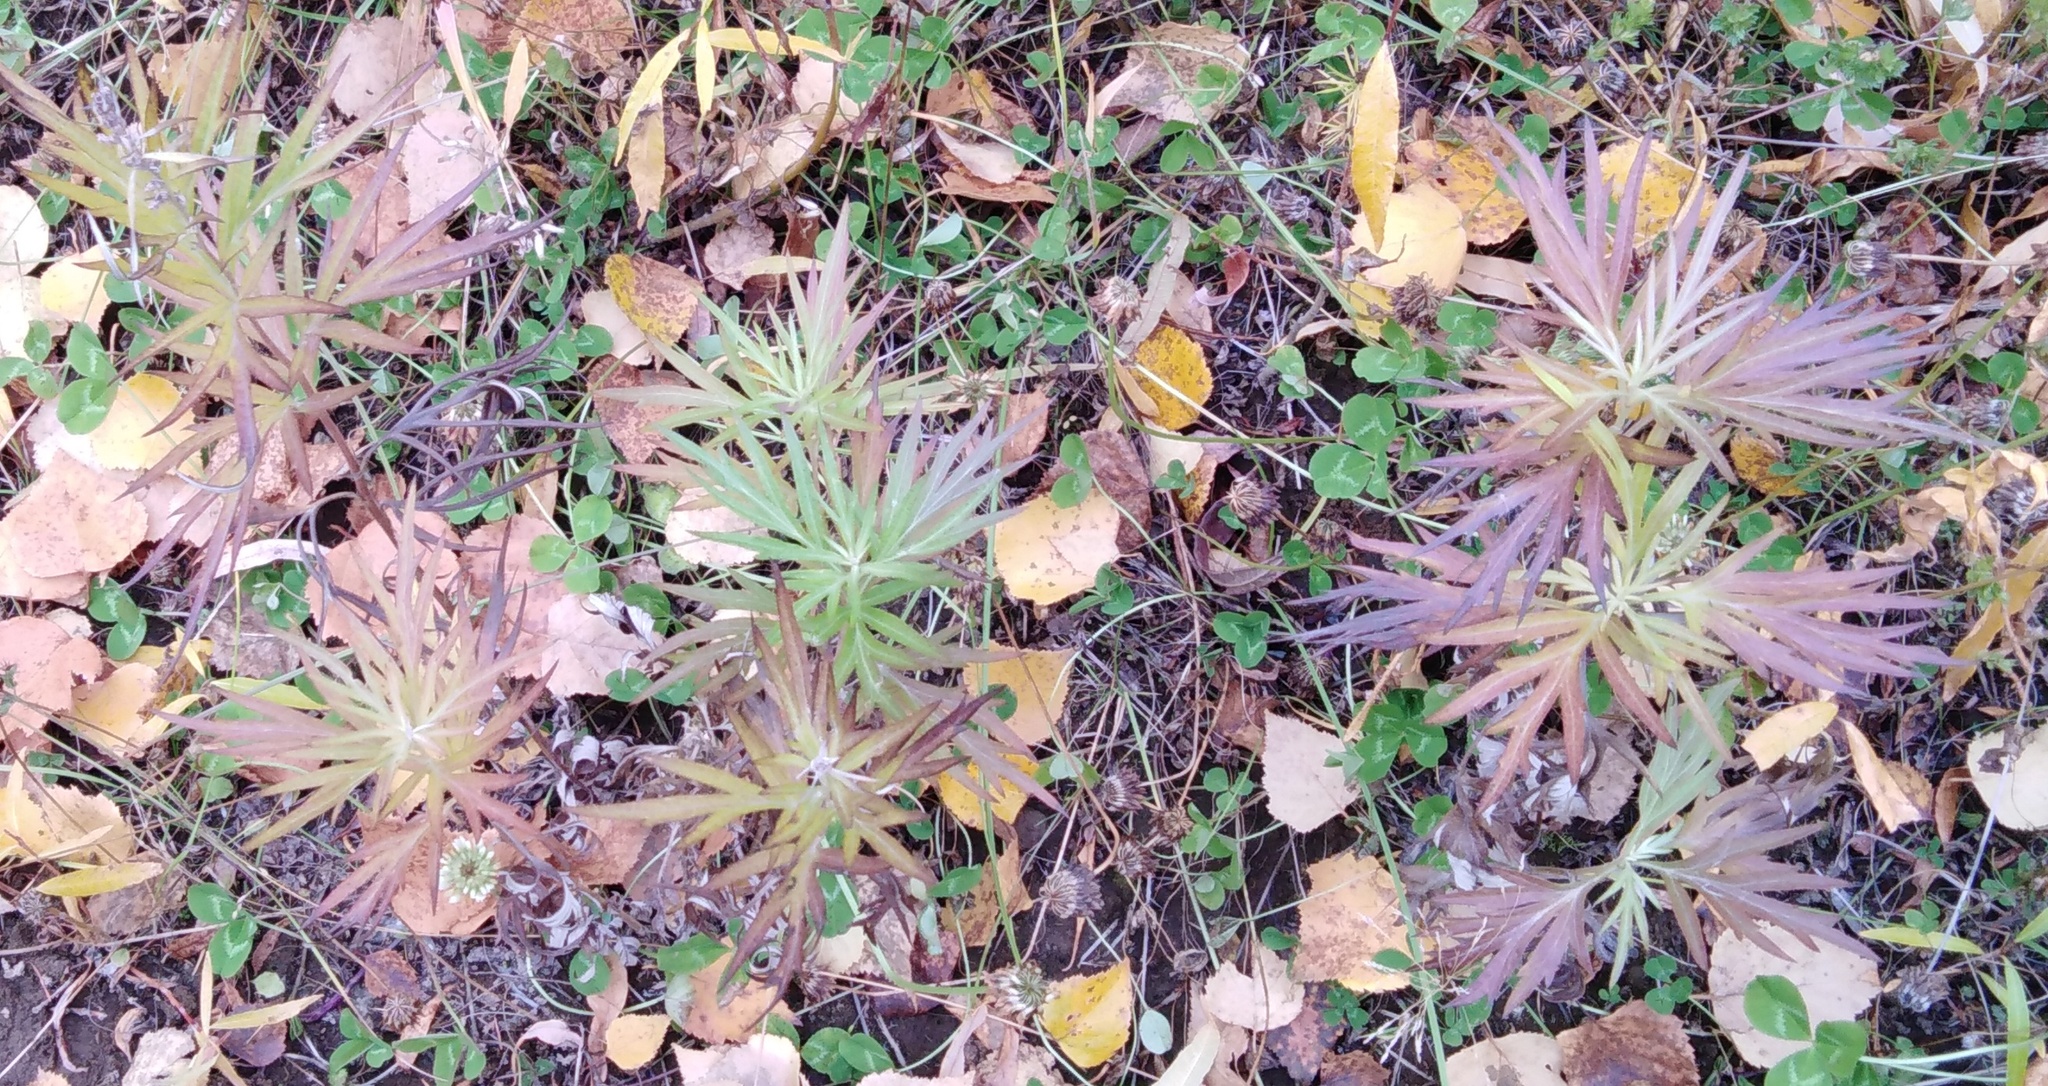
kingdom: Plantae
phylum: Tracheophyta
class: Magnoliopsida
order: Asterales
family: Asteraceae
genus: Artemisia
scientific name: Artemisia vulgaris
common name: Mugwort
